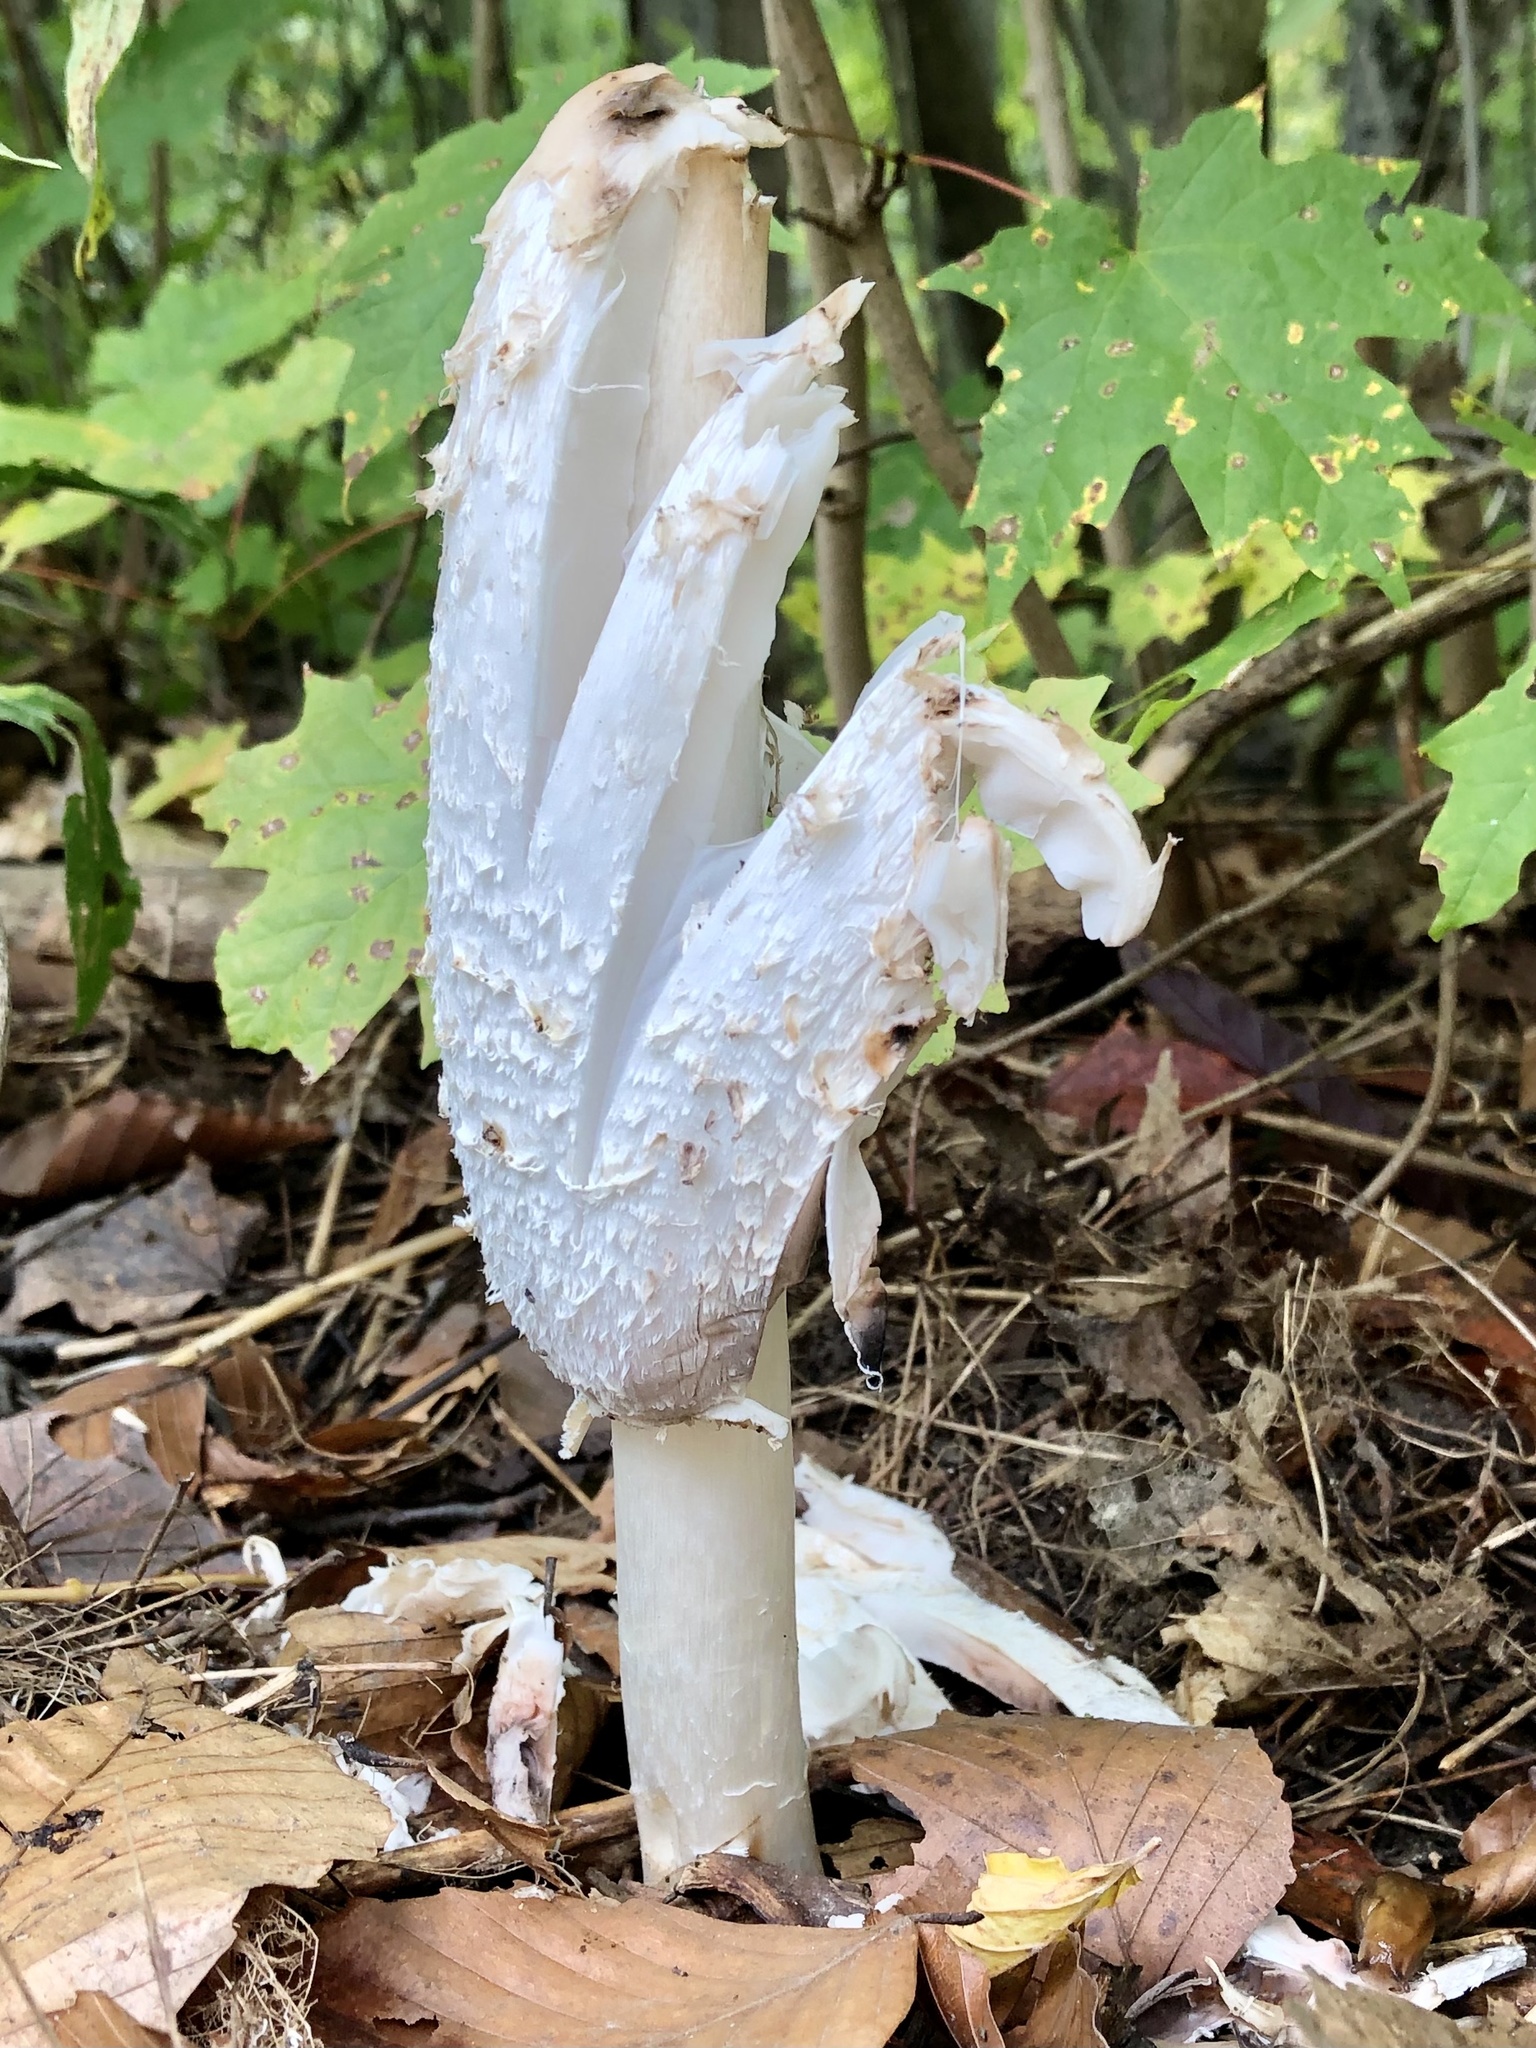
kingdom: Fungi
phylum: Basidiomycota
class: Agaricomycetes
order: Agaricales
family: Agaricaceae
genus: Coprinus
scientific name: Coprinus comatus
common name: Lawyer's wig
